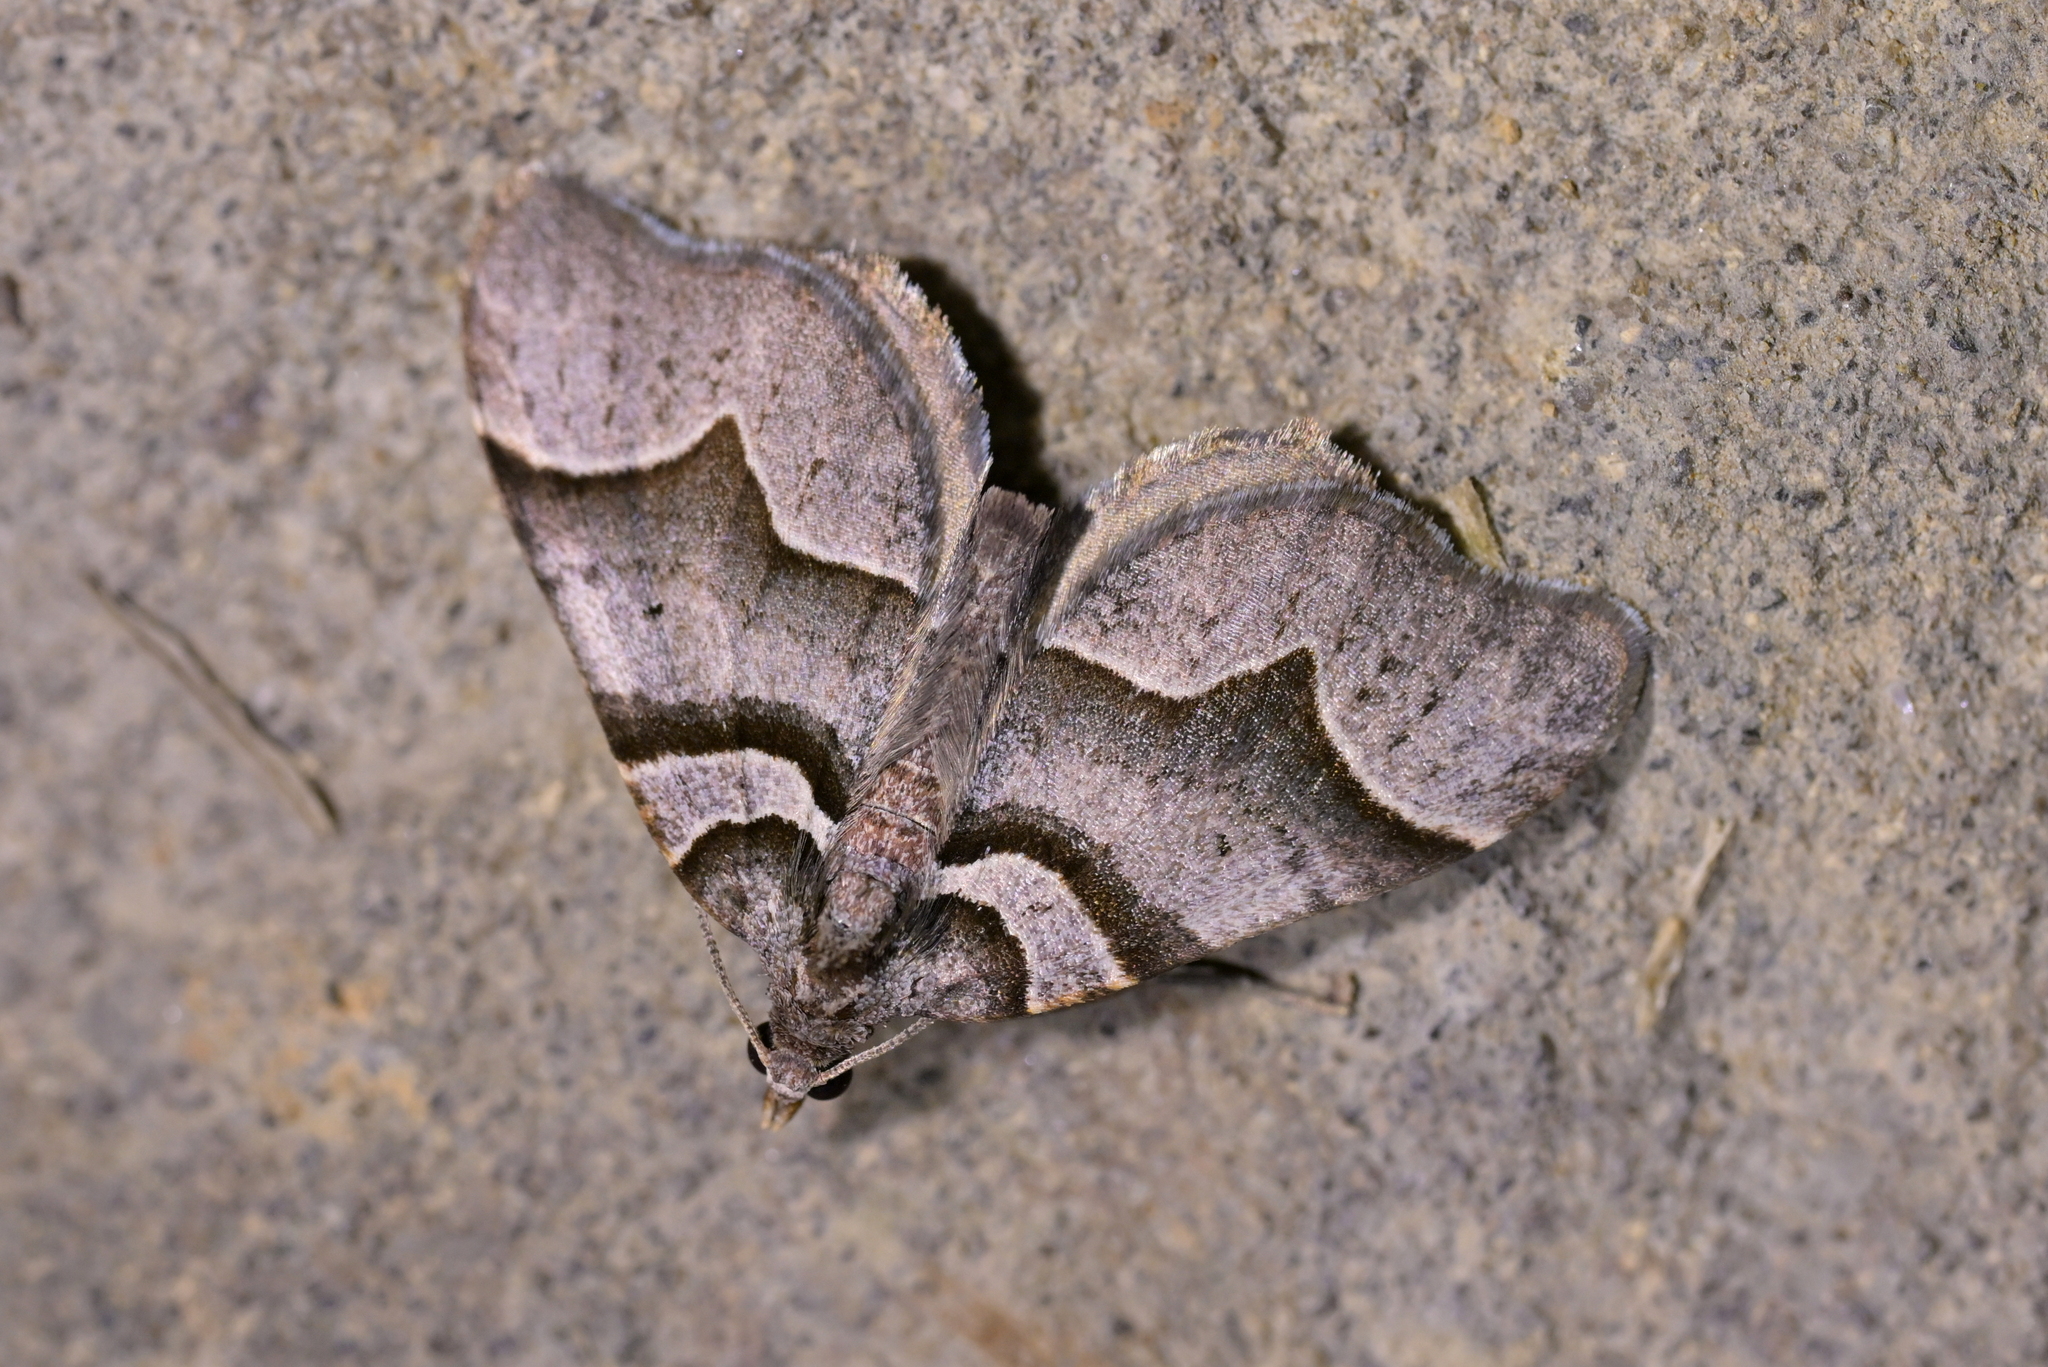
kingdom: Animalia
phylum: Arthropoda
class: Insecta
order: Lepidoptera
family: Geometridae
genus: Helastia
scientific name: Helastia siris
